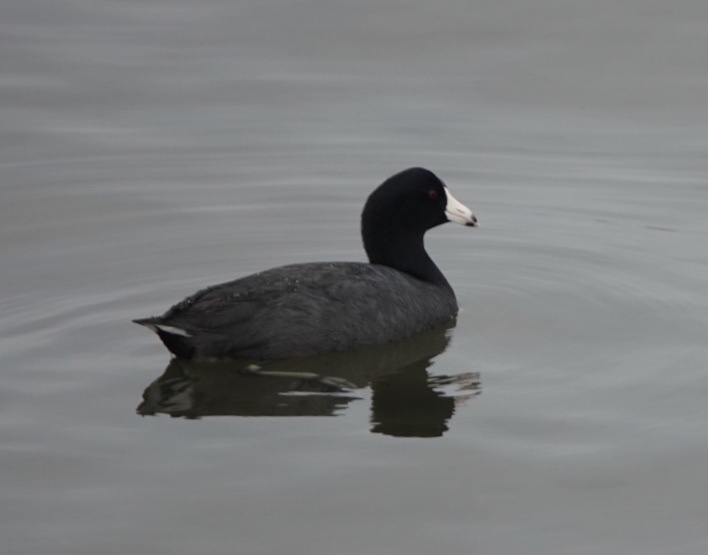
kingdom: Animalia
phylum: Chordata
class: Aves
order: Gruiformes
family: Rallidae
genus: Fulica
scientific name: Fulica americana
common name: American coot
